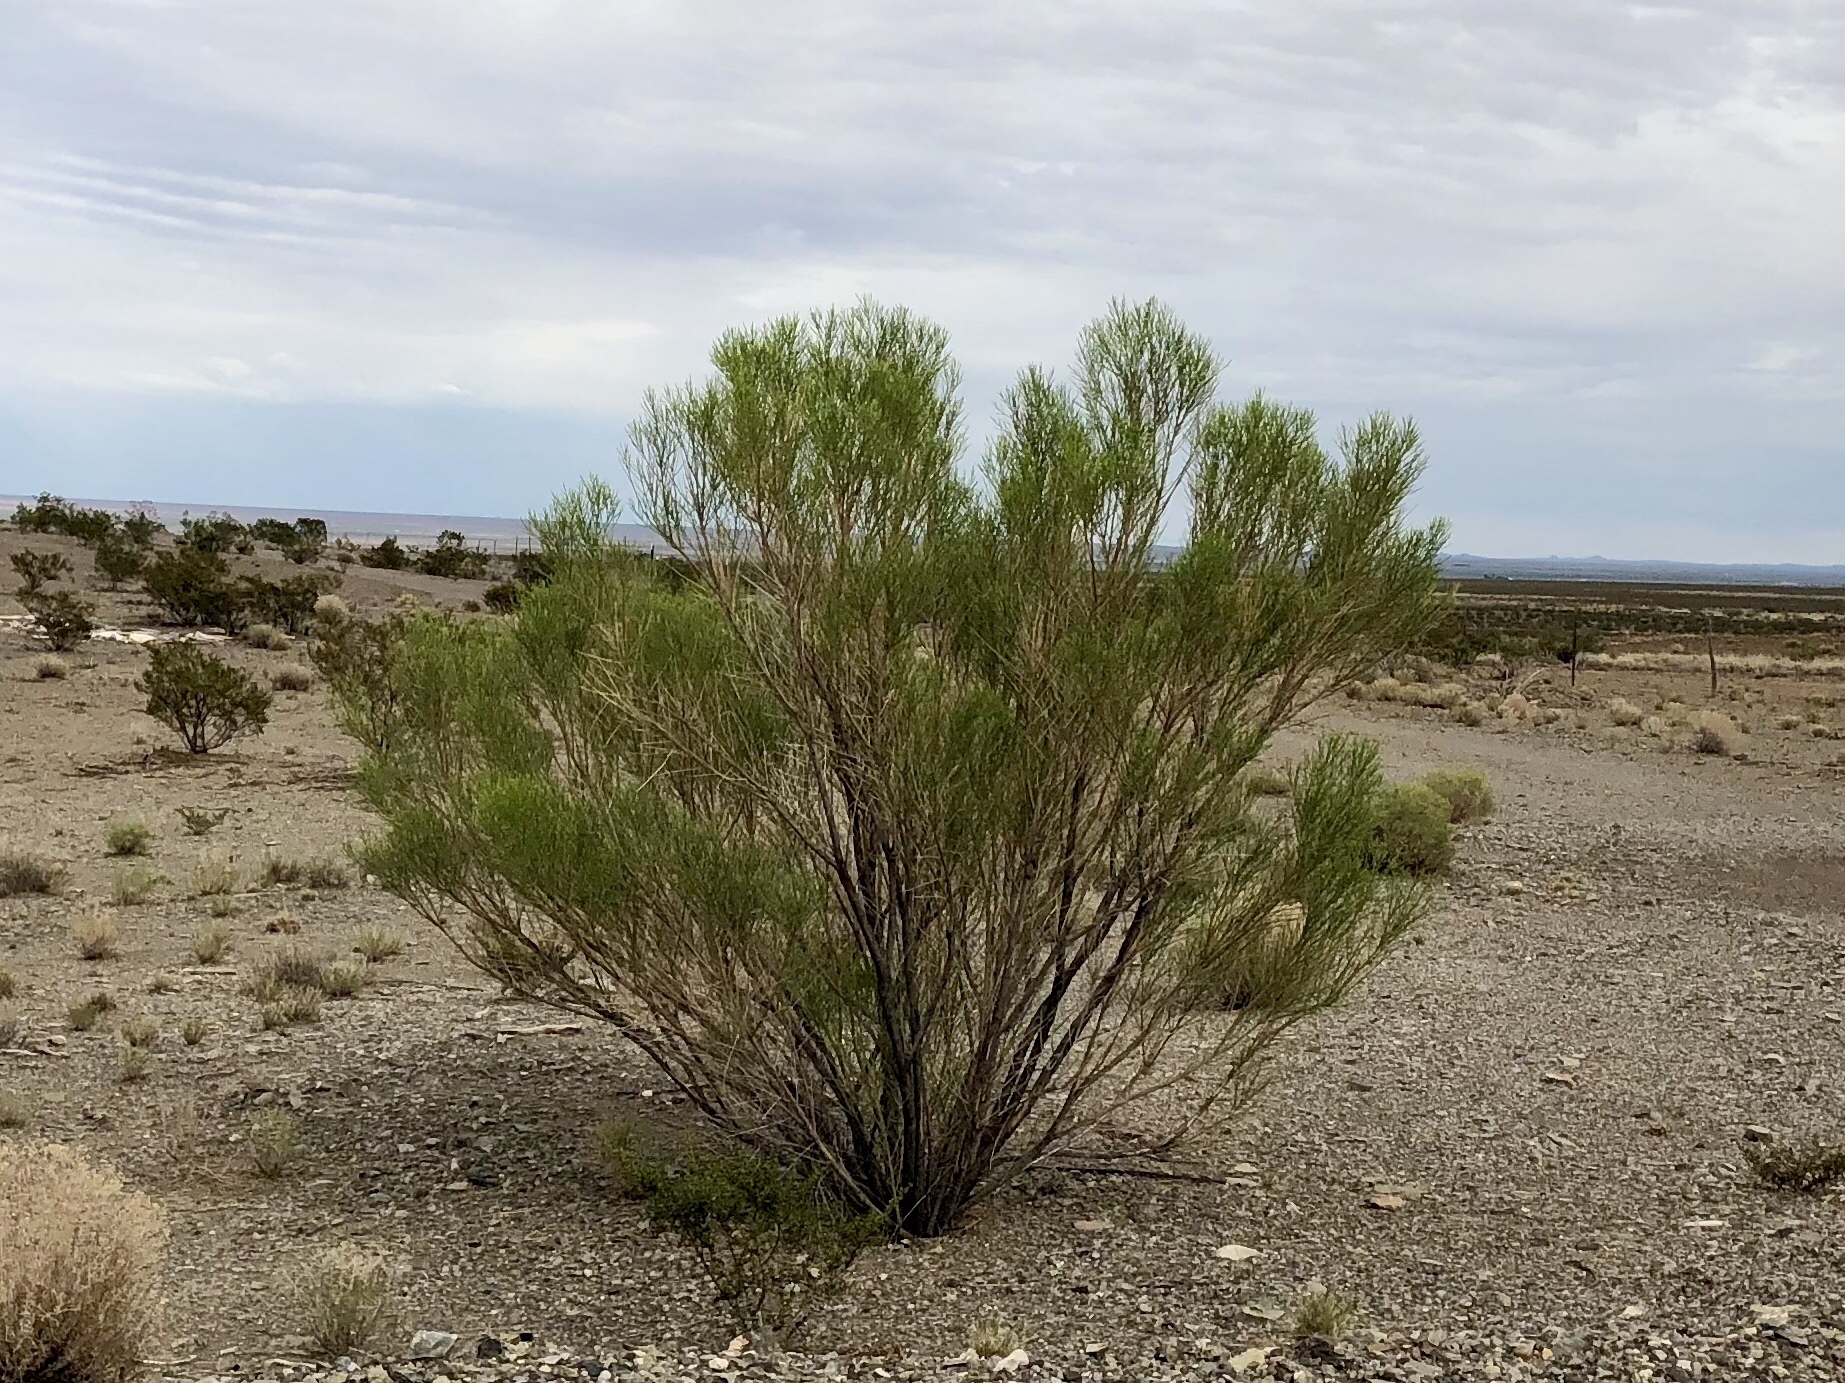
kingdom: Plantae
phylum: Tracheophyta
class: Magnoliopsida
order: Asterales
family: Asteraceae
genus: Baccharis
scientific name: Baccharis sarothroides
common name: Desert-broom
